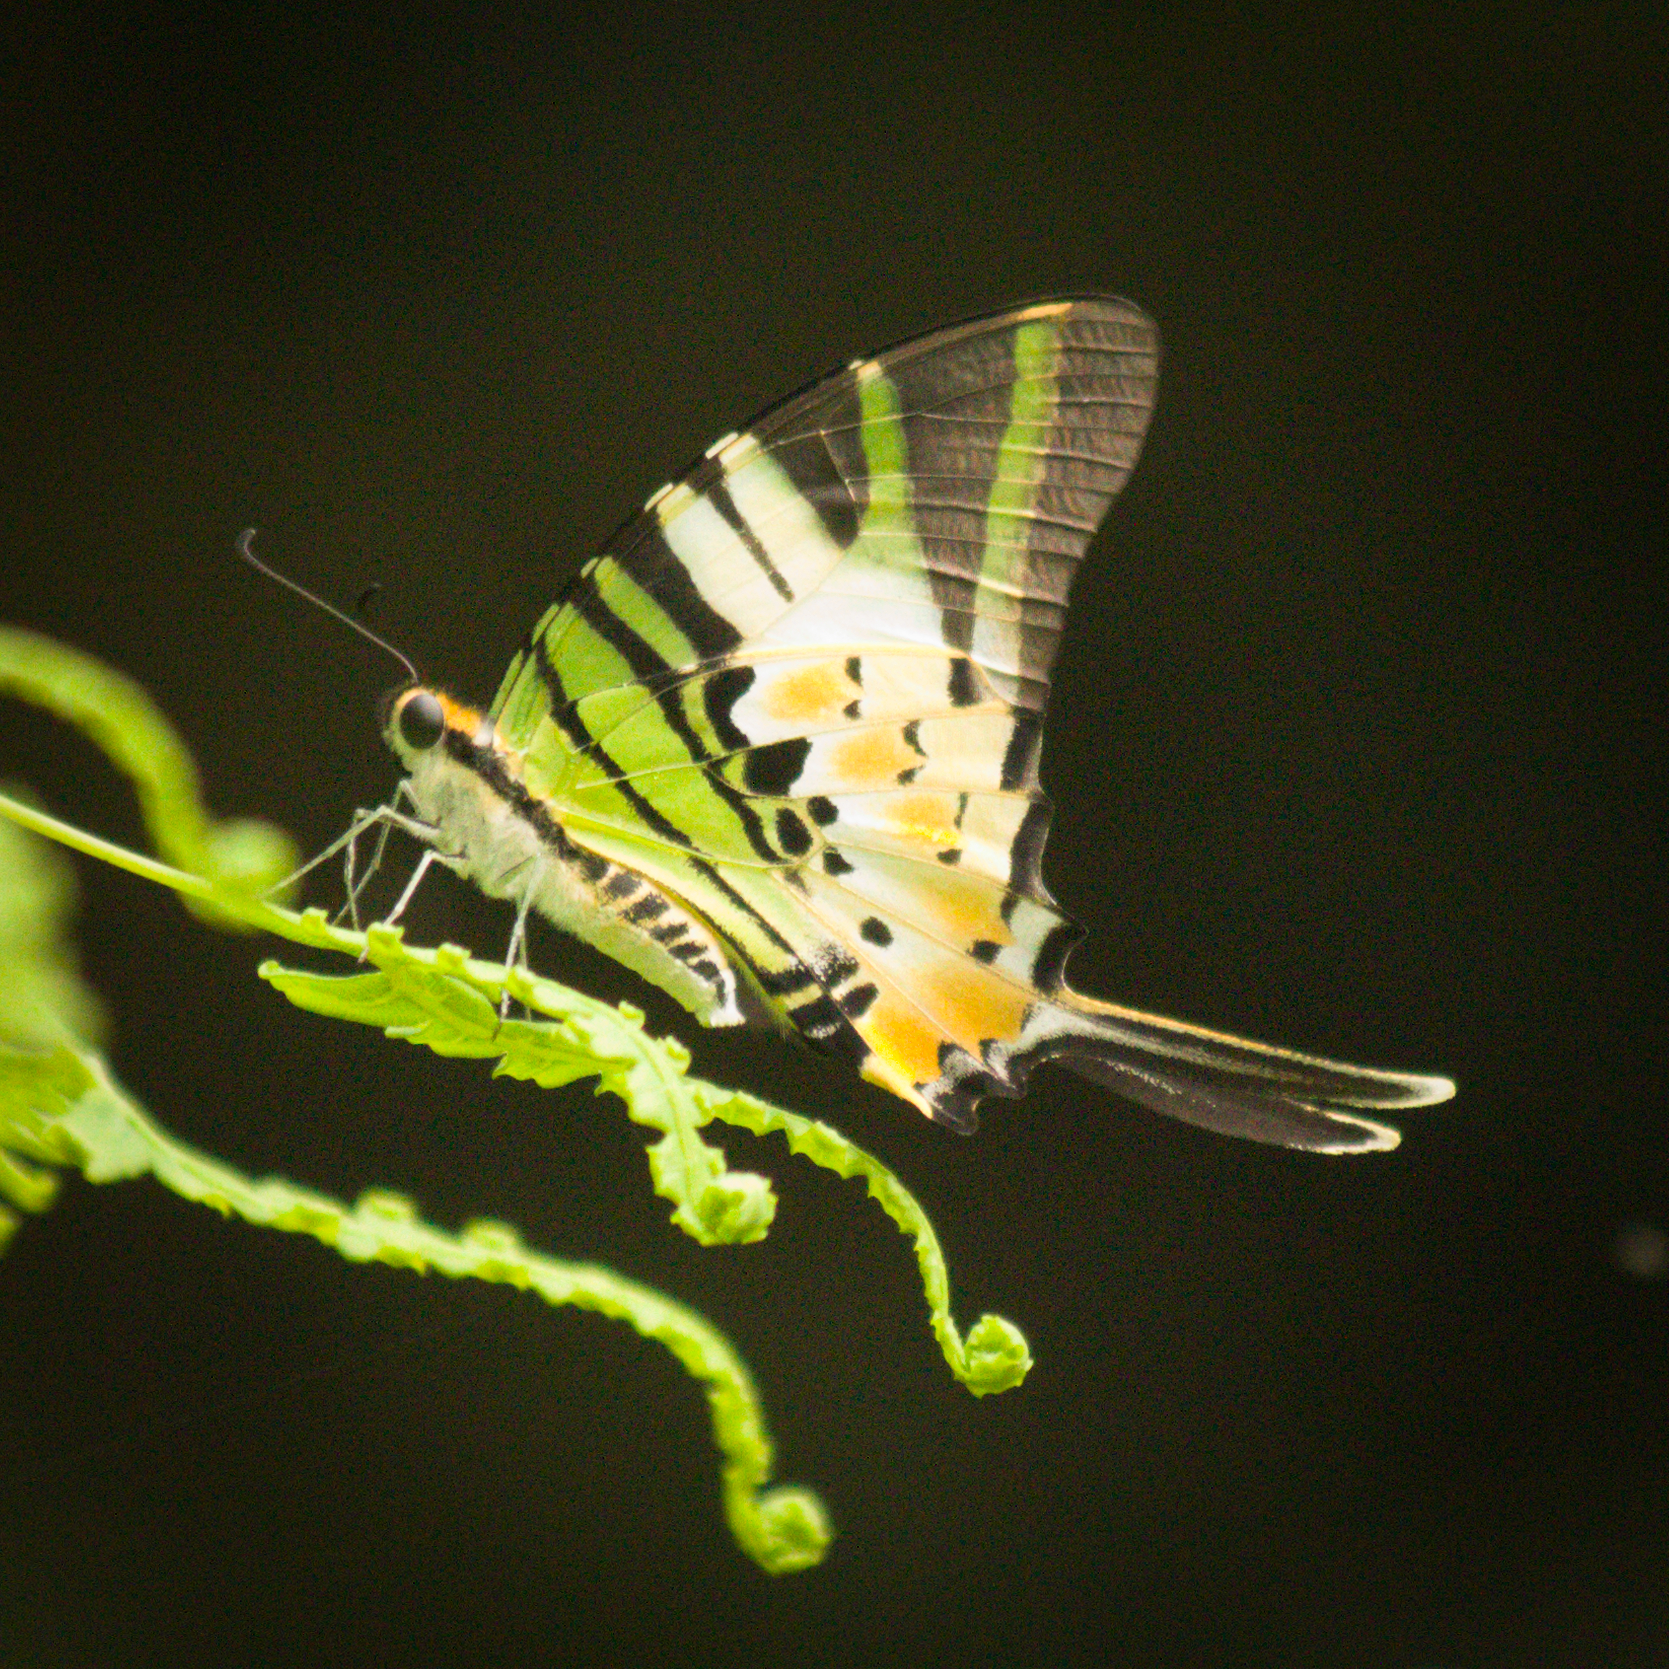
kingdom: Animalia
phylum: Arthropoda
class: Insecta
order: Lepidoptera
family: Papilionidae
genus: Graphium
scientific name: Graphium antiphates
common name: Fivebar swordtail
